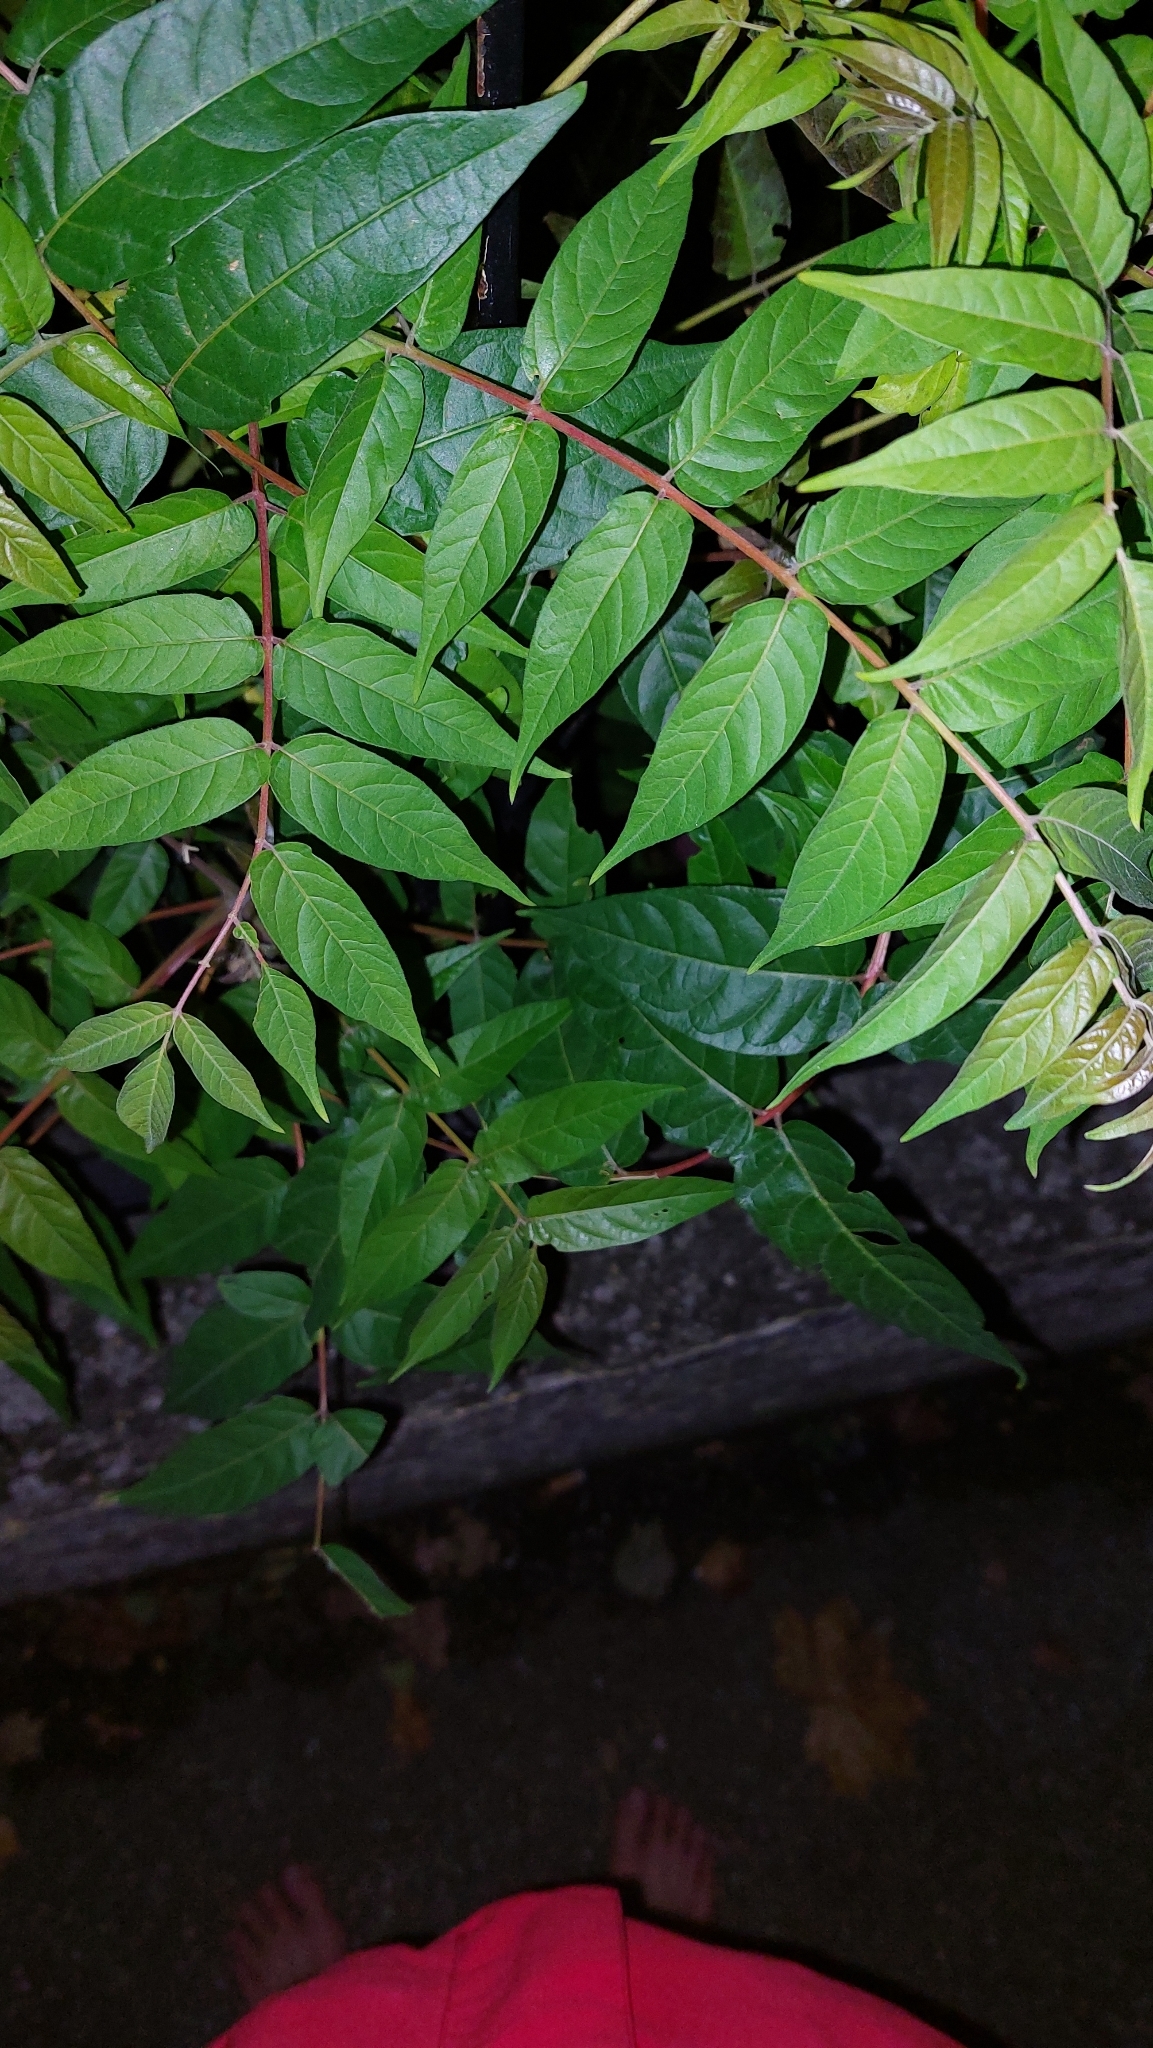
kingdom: Plantae
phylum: Tracheophyta
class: Magnoliopsida
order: Sapindales
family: Simaroubaceae
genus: Ailanthus
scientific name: Ailanthus altissima
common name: Tree-of-heaven
